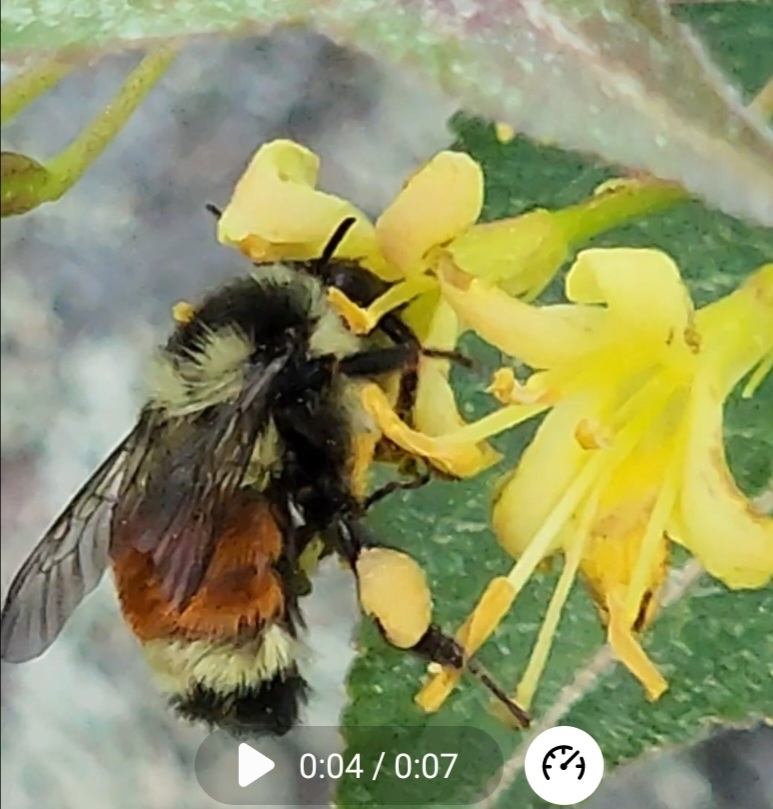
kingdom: Animalia
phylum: Arthropoda
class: Insecta
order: Hymenoptera
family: Apidae
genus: Bombus
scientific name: Bombus ternarius
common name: Tri-colored bumble bee
